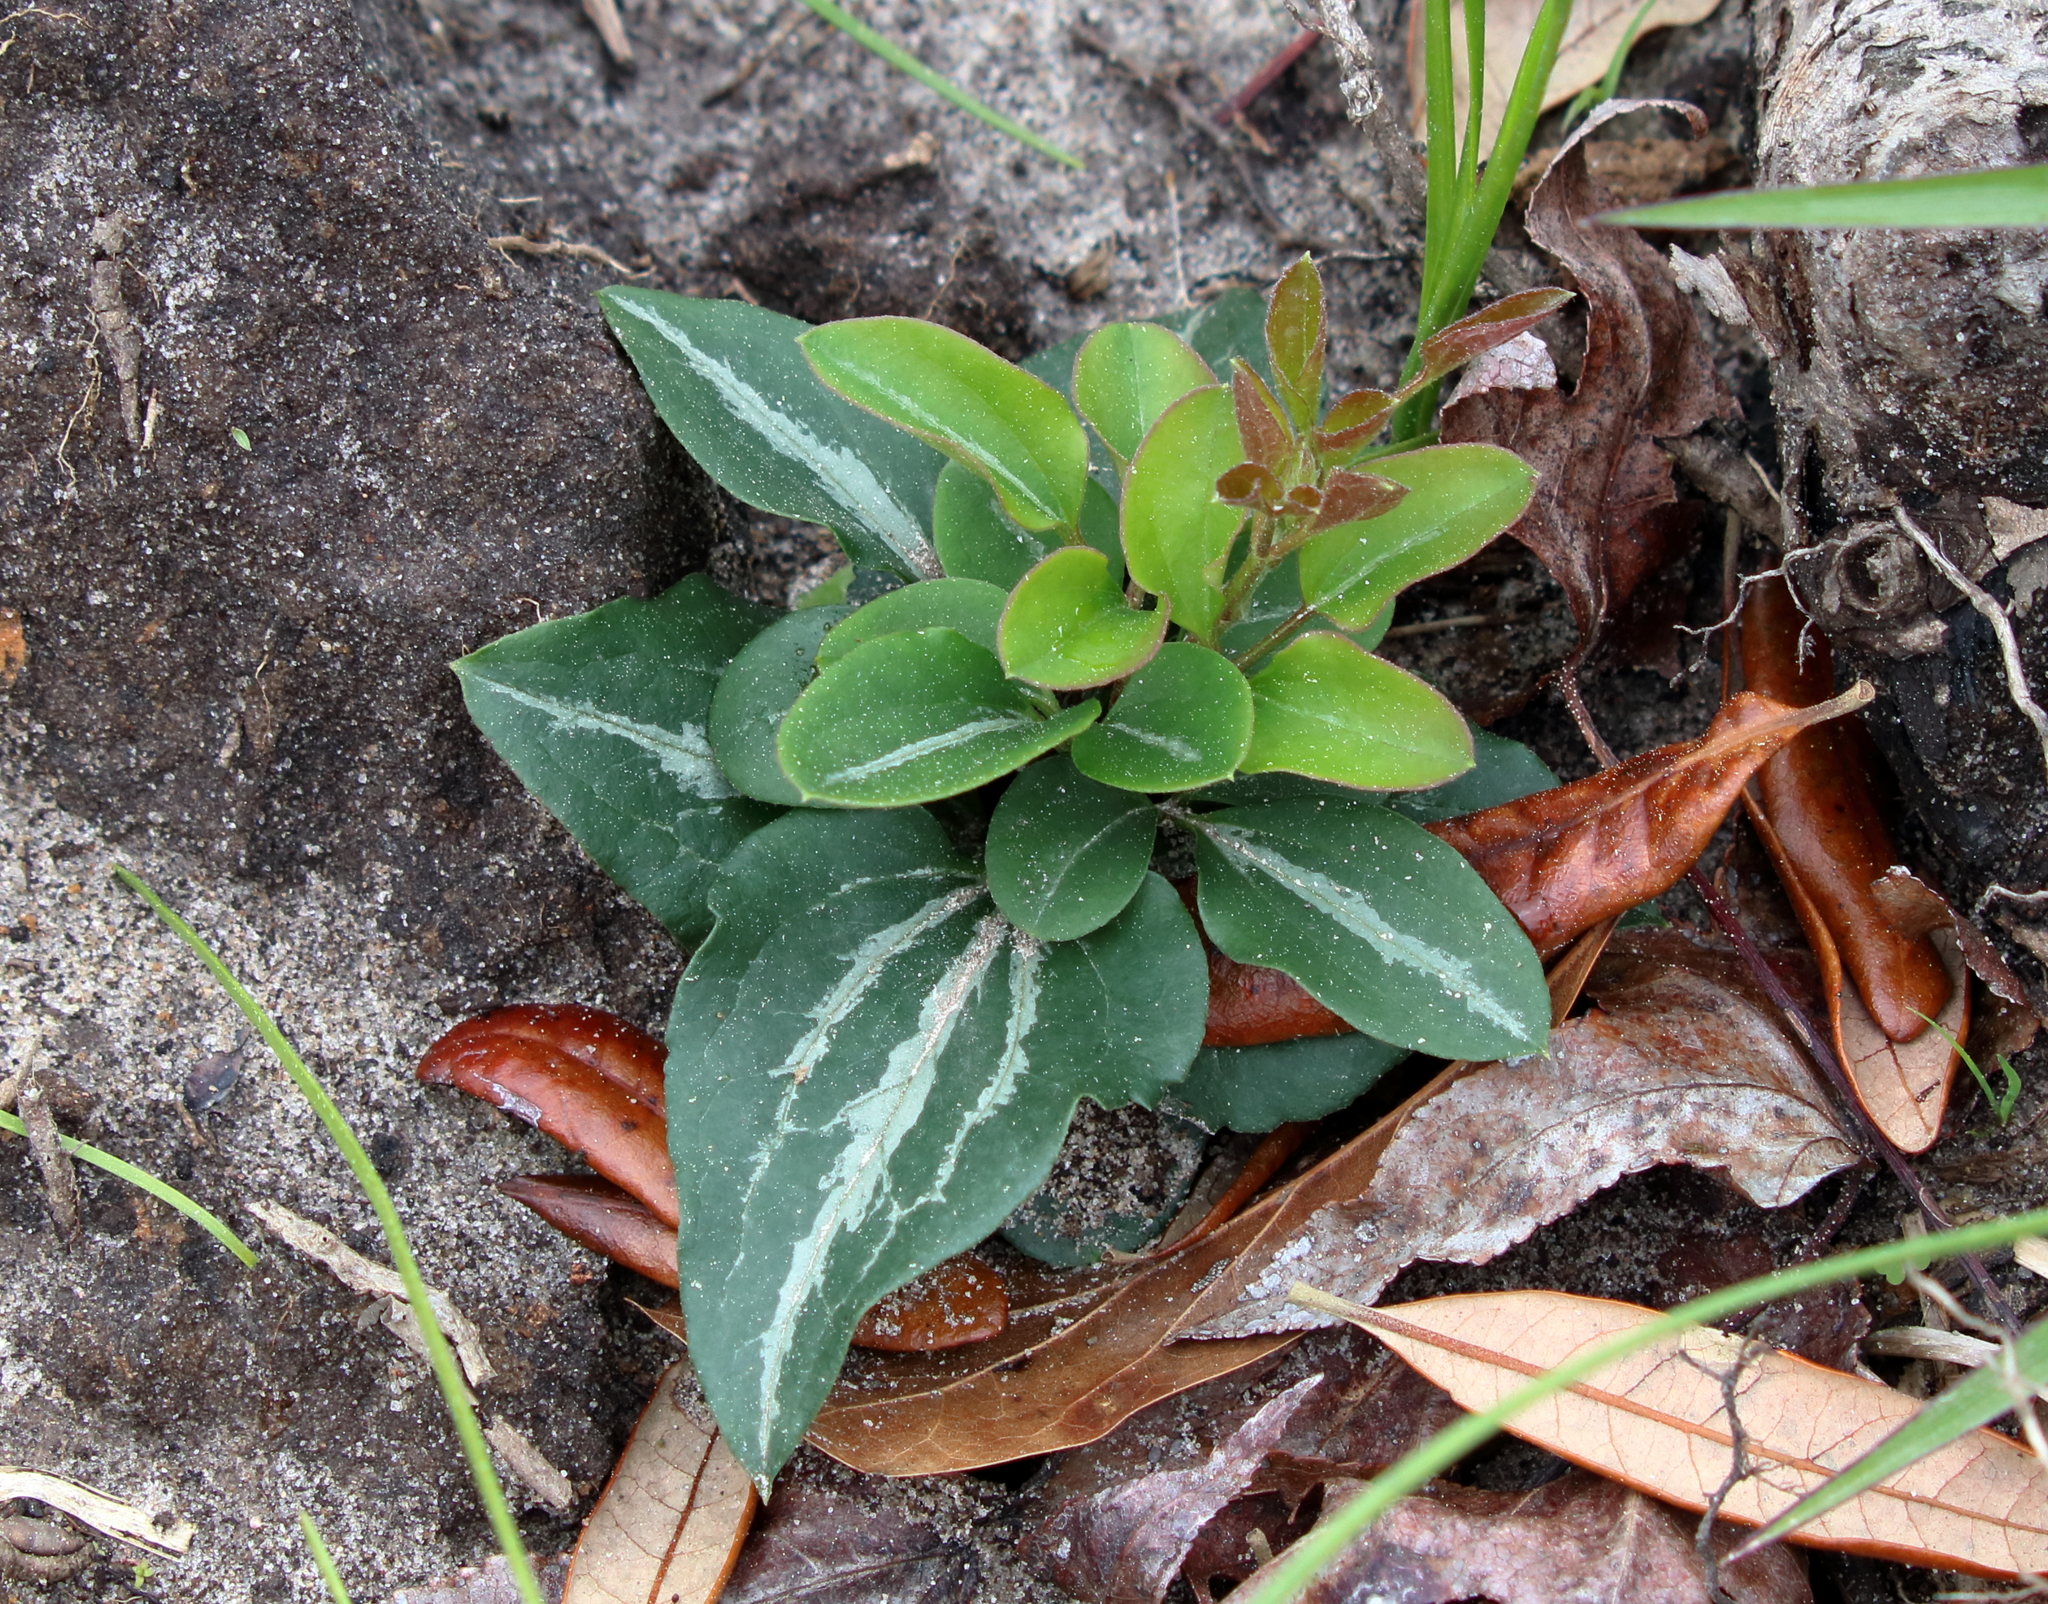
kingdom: Plantae
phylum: Tracheophyta
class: Magnoliopsida
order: Ranunculales
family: Ranunculaceae
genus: Clematis
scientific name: Clematis terniflora
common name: Sweet autumn clematis
